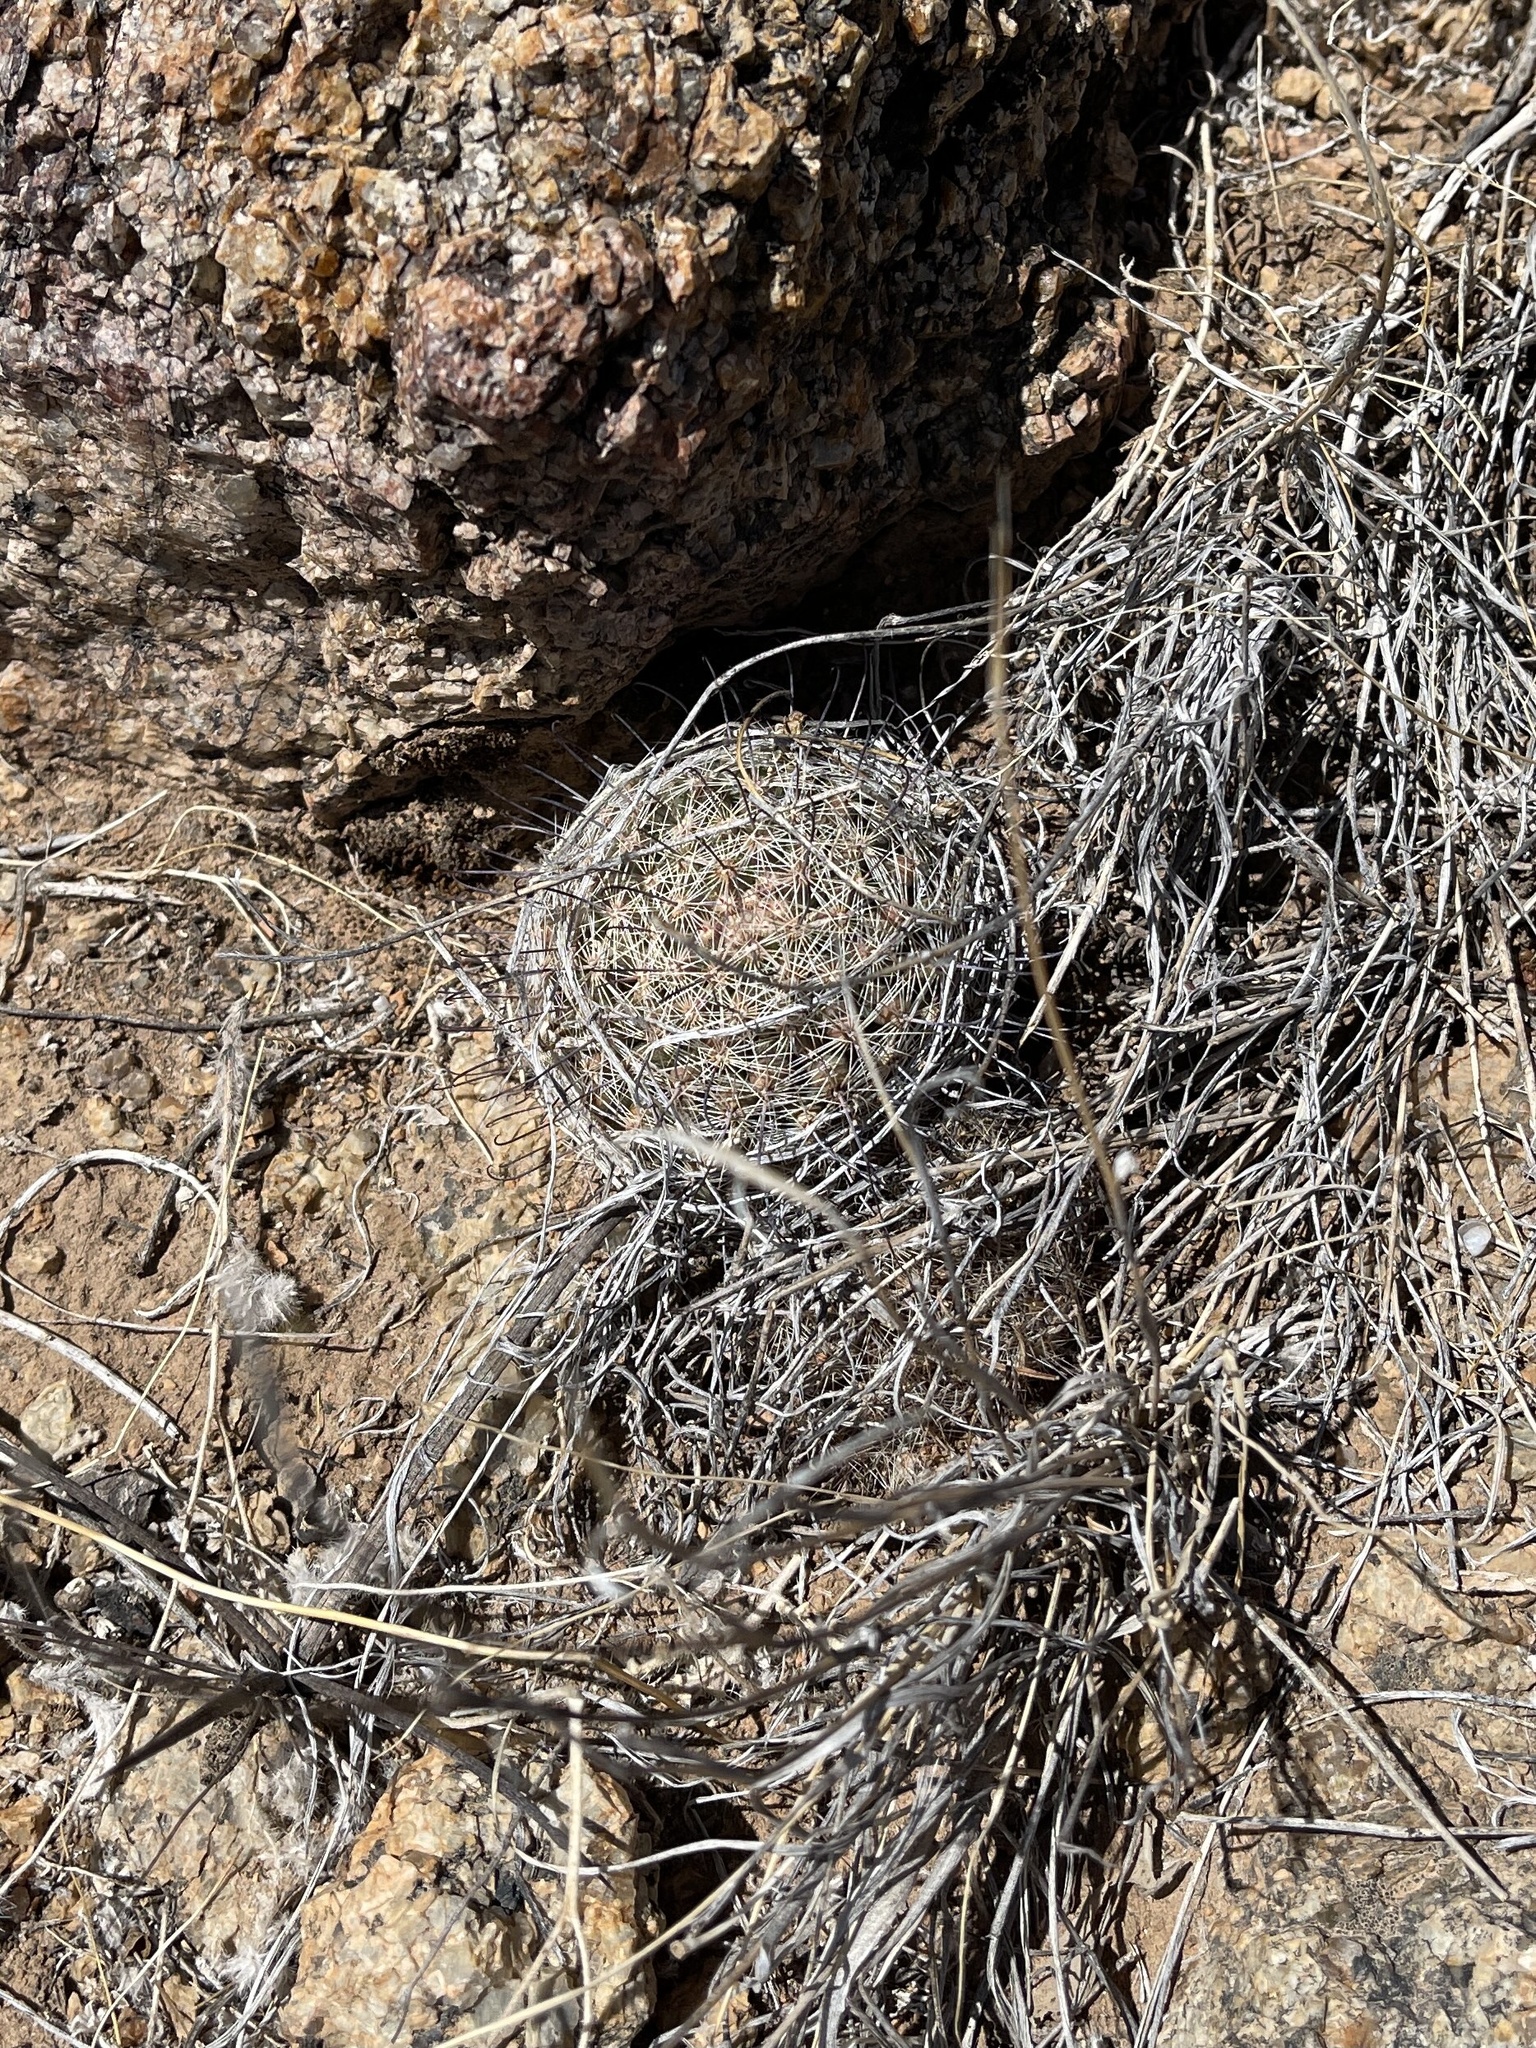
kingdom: Plantae
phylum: Tracheophyta
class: Magnoliopsida
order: Caryophyllales
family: Cactaceae
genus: Cochemiea
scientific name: Cochemiea grahamii
